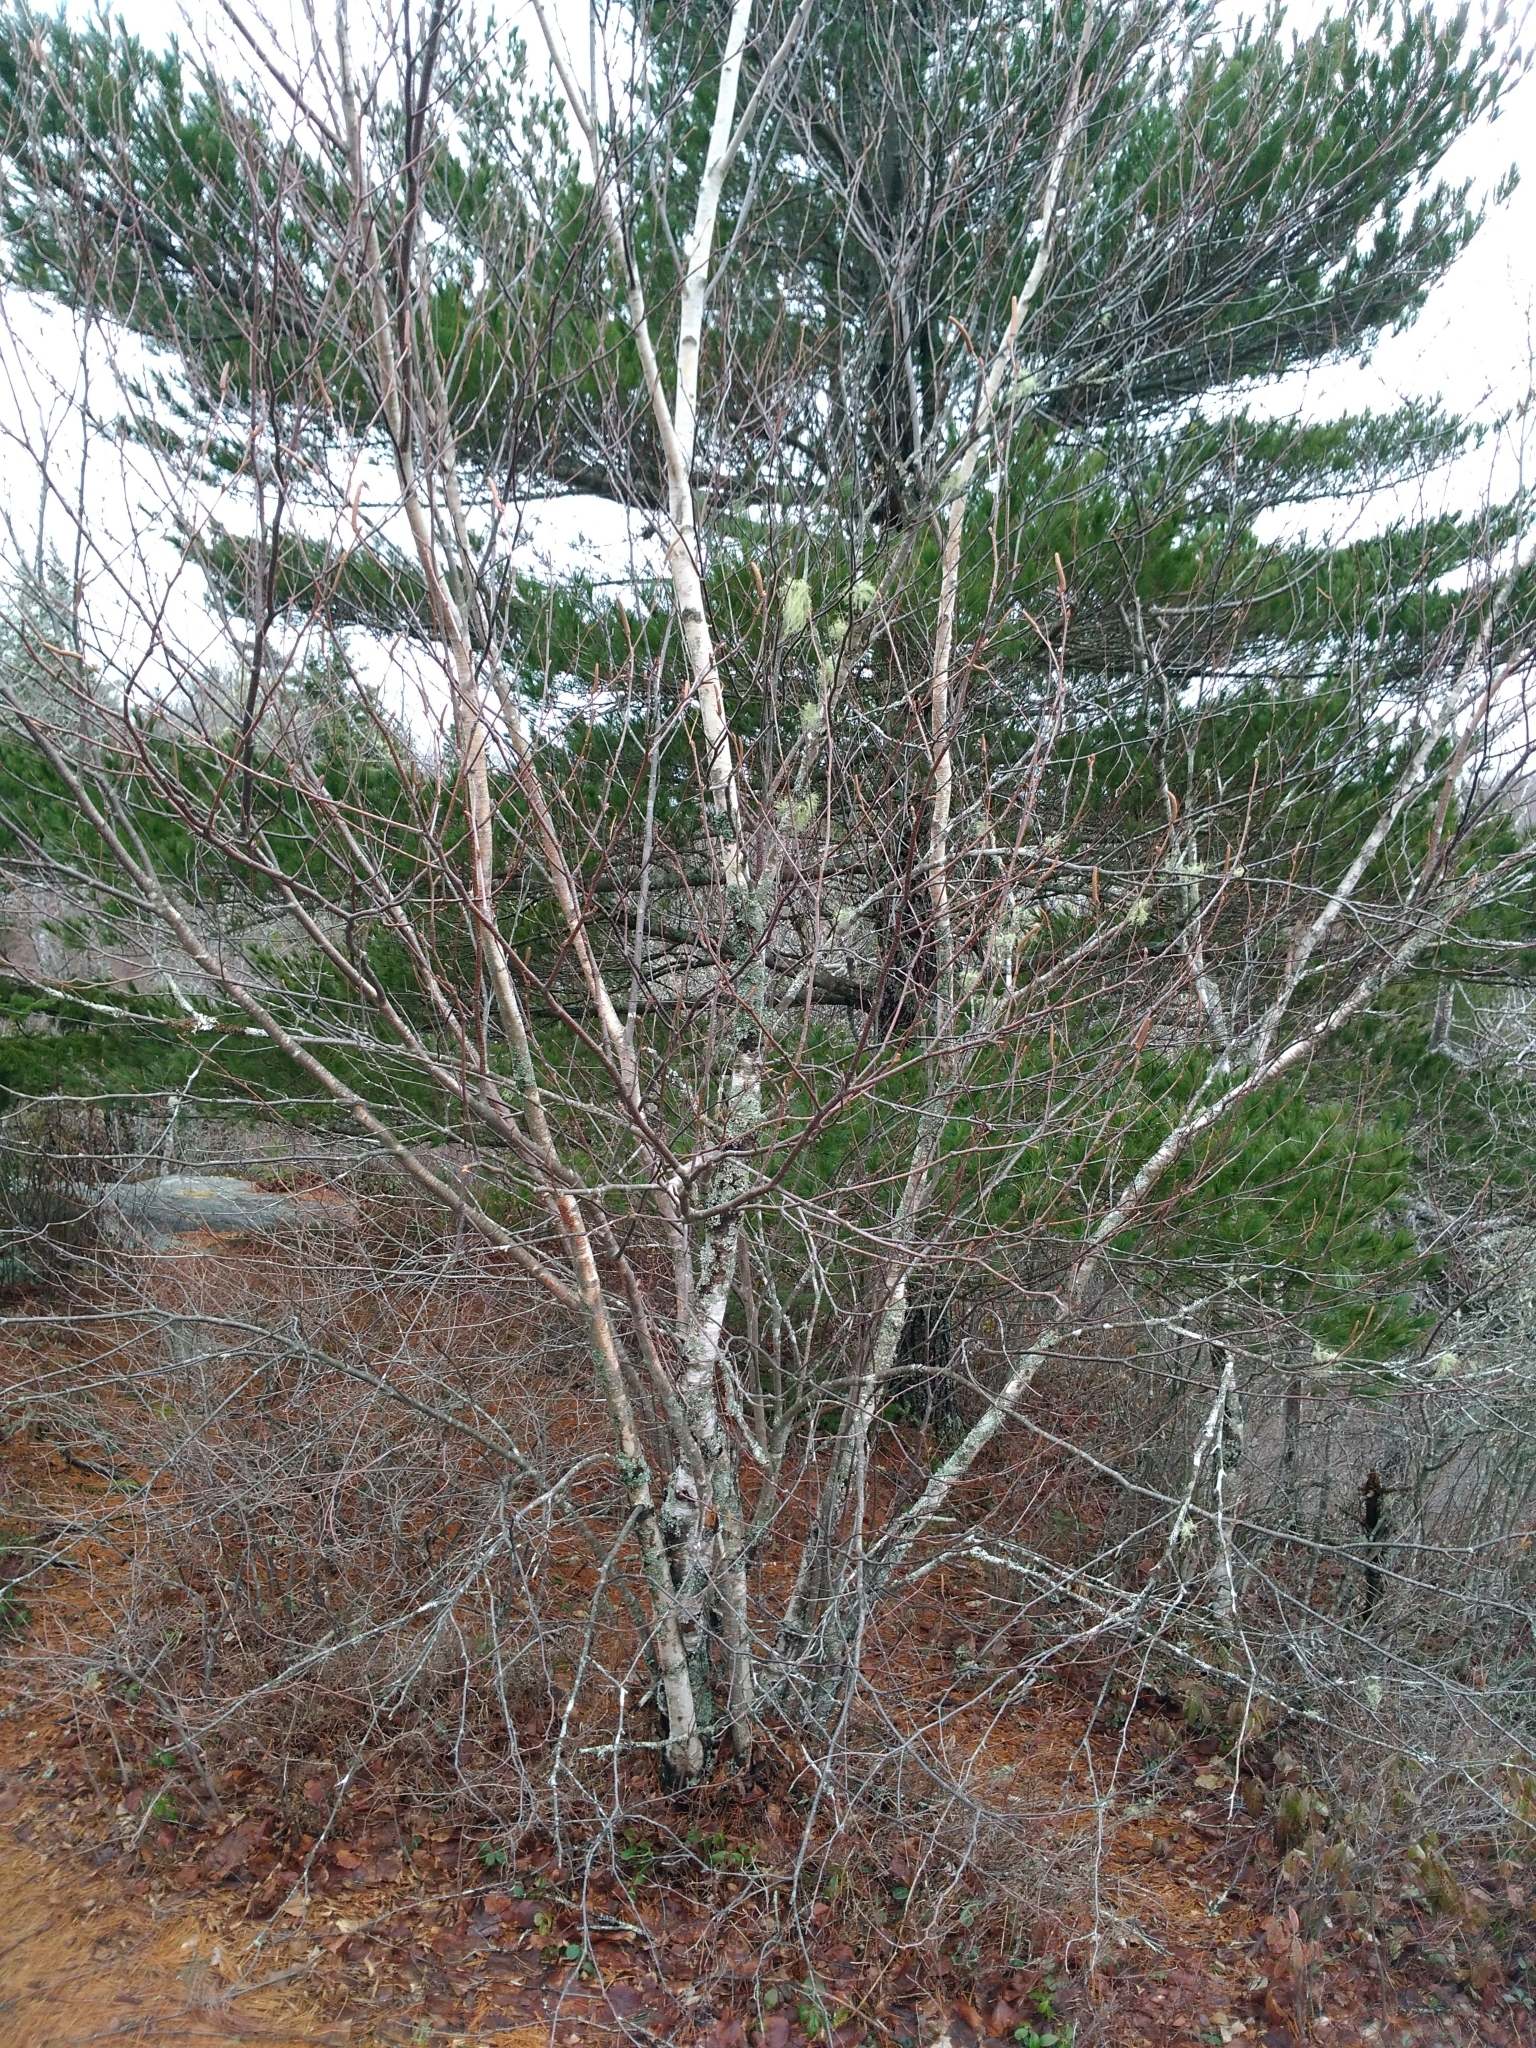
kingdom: Plantae
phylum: Tracheophyta
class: Magnoliopsida
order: Fagales
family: Betulaceae
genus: Betula
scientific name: Betula populifolia
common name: Fire birch
